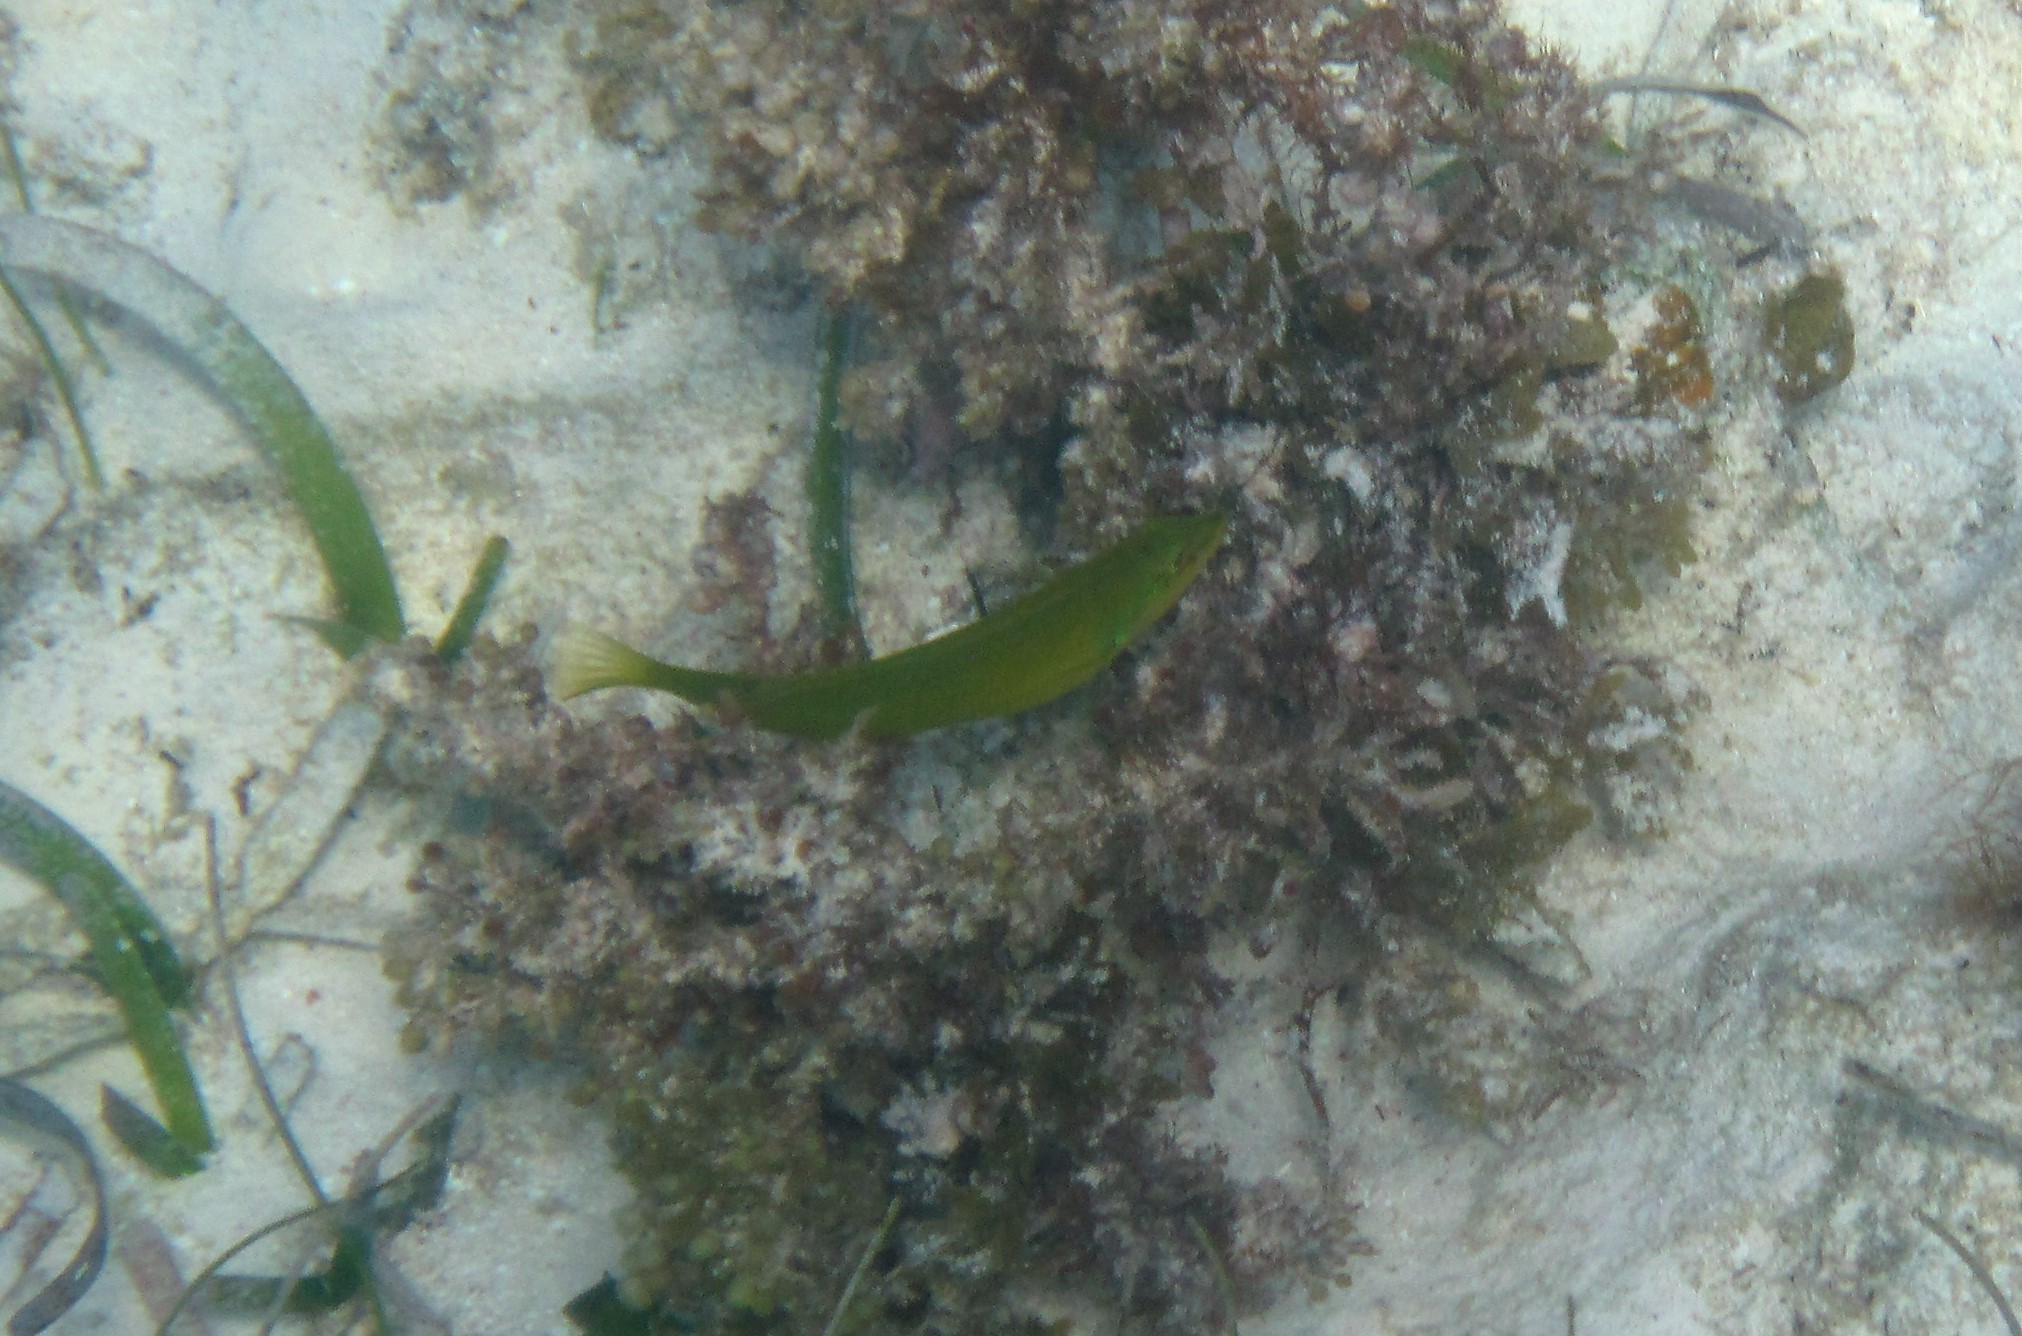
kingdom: Animalia
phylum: Chordata
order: Perciformes
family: Labridae
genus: Halichoeres
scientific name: Halichoeres poeyi
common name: Blackear wrasse
